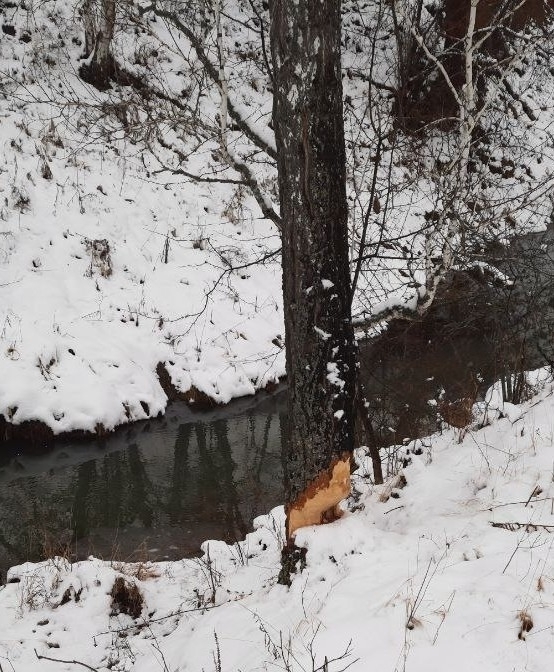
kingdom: Animalia
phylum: Chordata
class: Mammalia
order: Rodentia
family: Castoridae
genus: Castor
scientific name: Castor fiber
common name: Eurasian beaver
